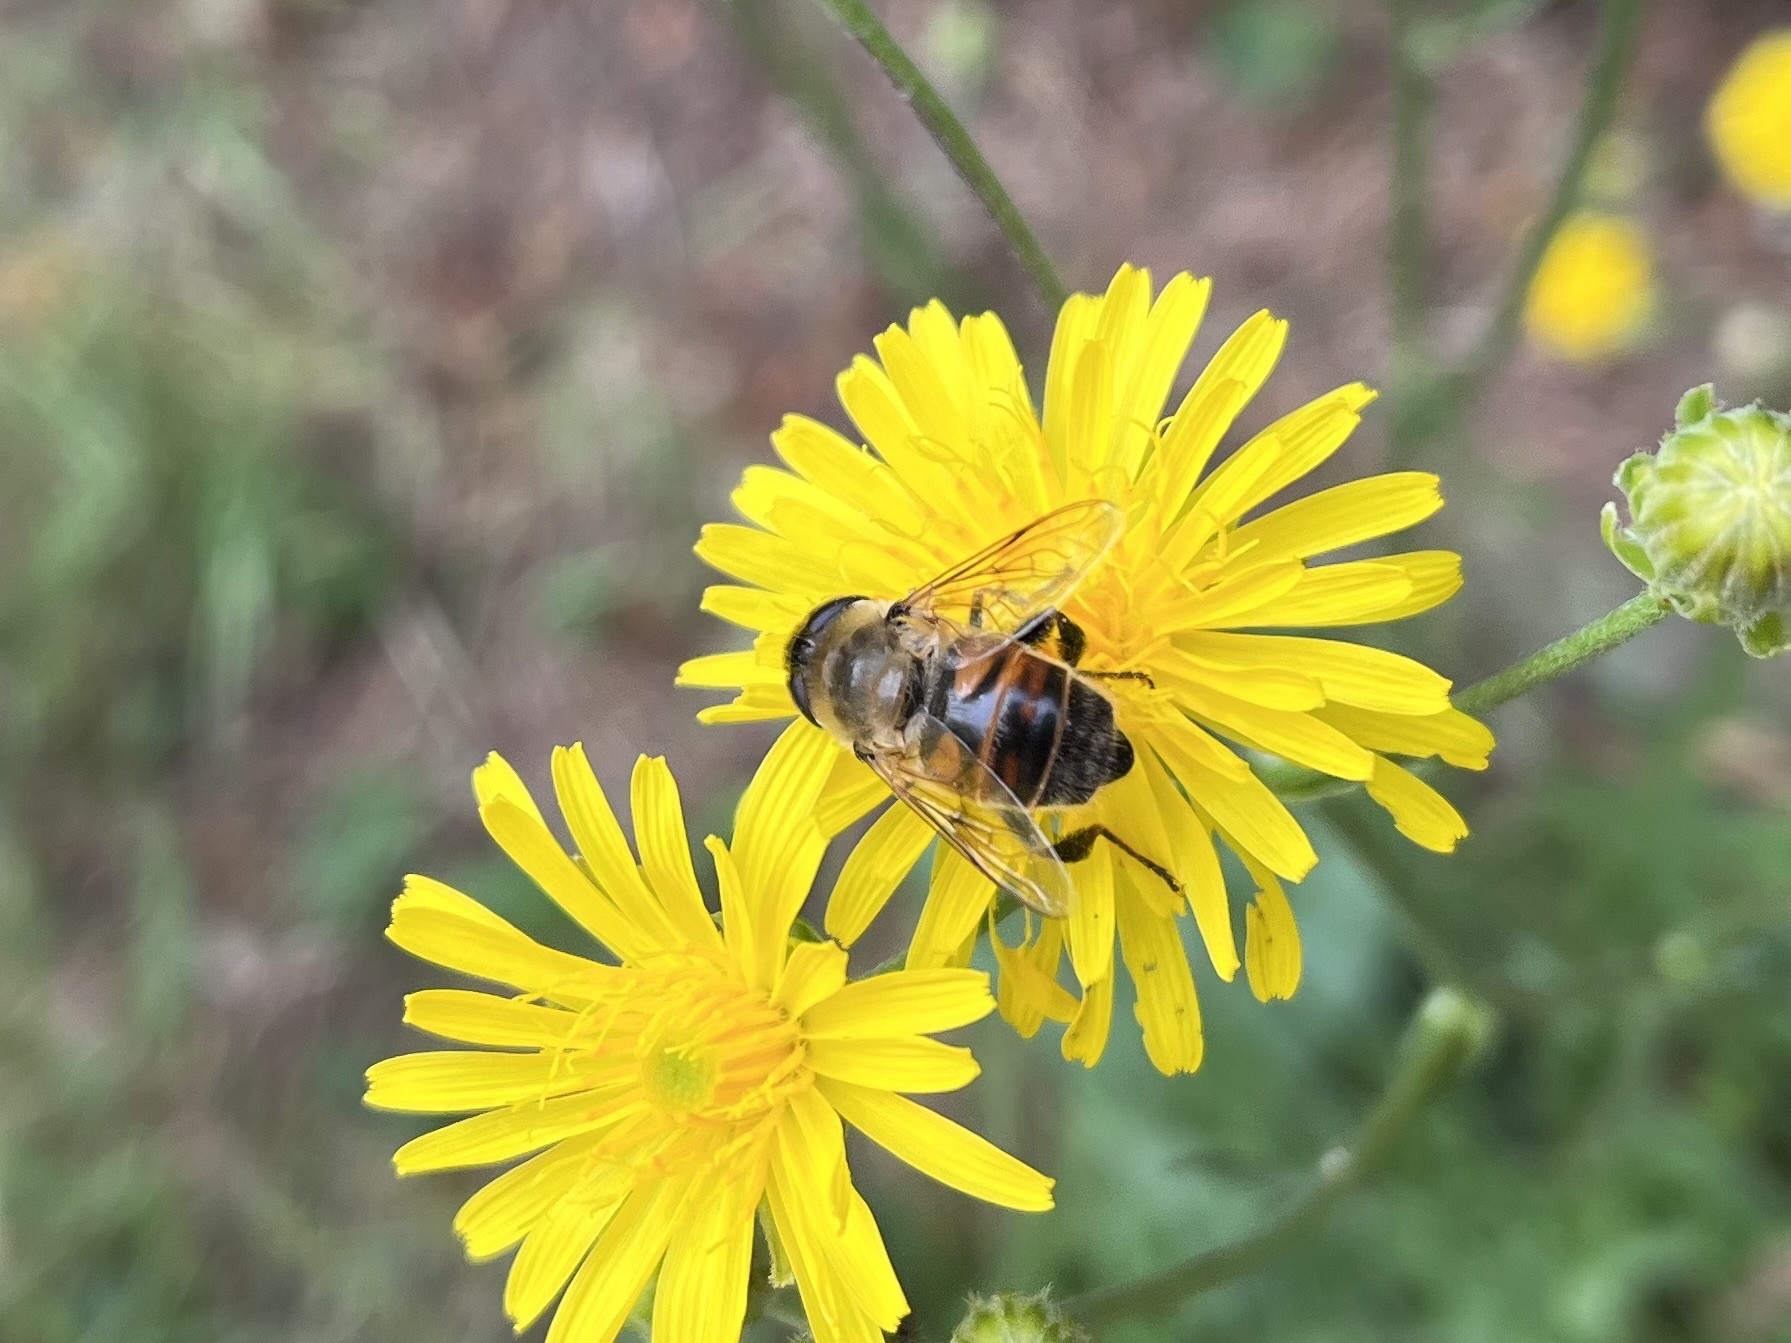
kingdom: Animalia
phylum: Arthropoda
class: Insecta
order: Diptera
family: Syrphidae
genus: Eristalis
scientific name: Eristalis tenax
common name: Drone fly
